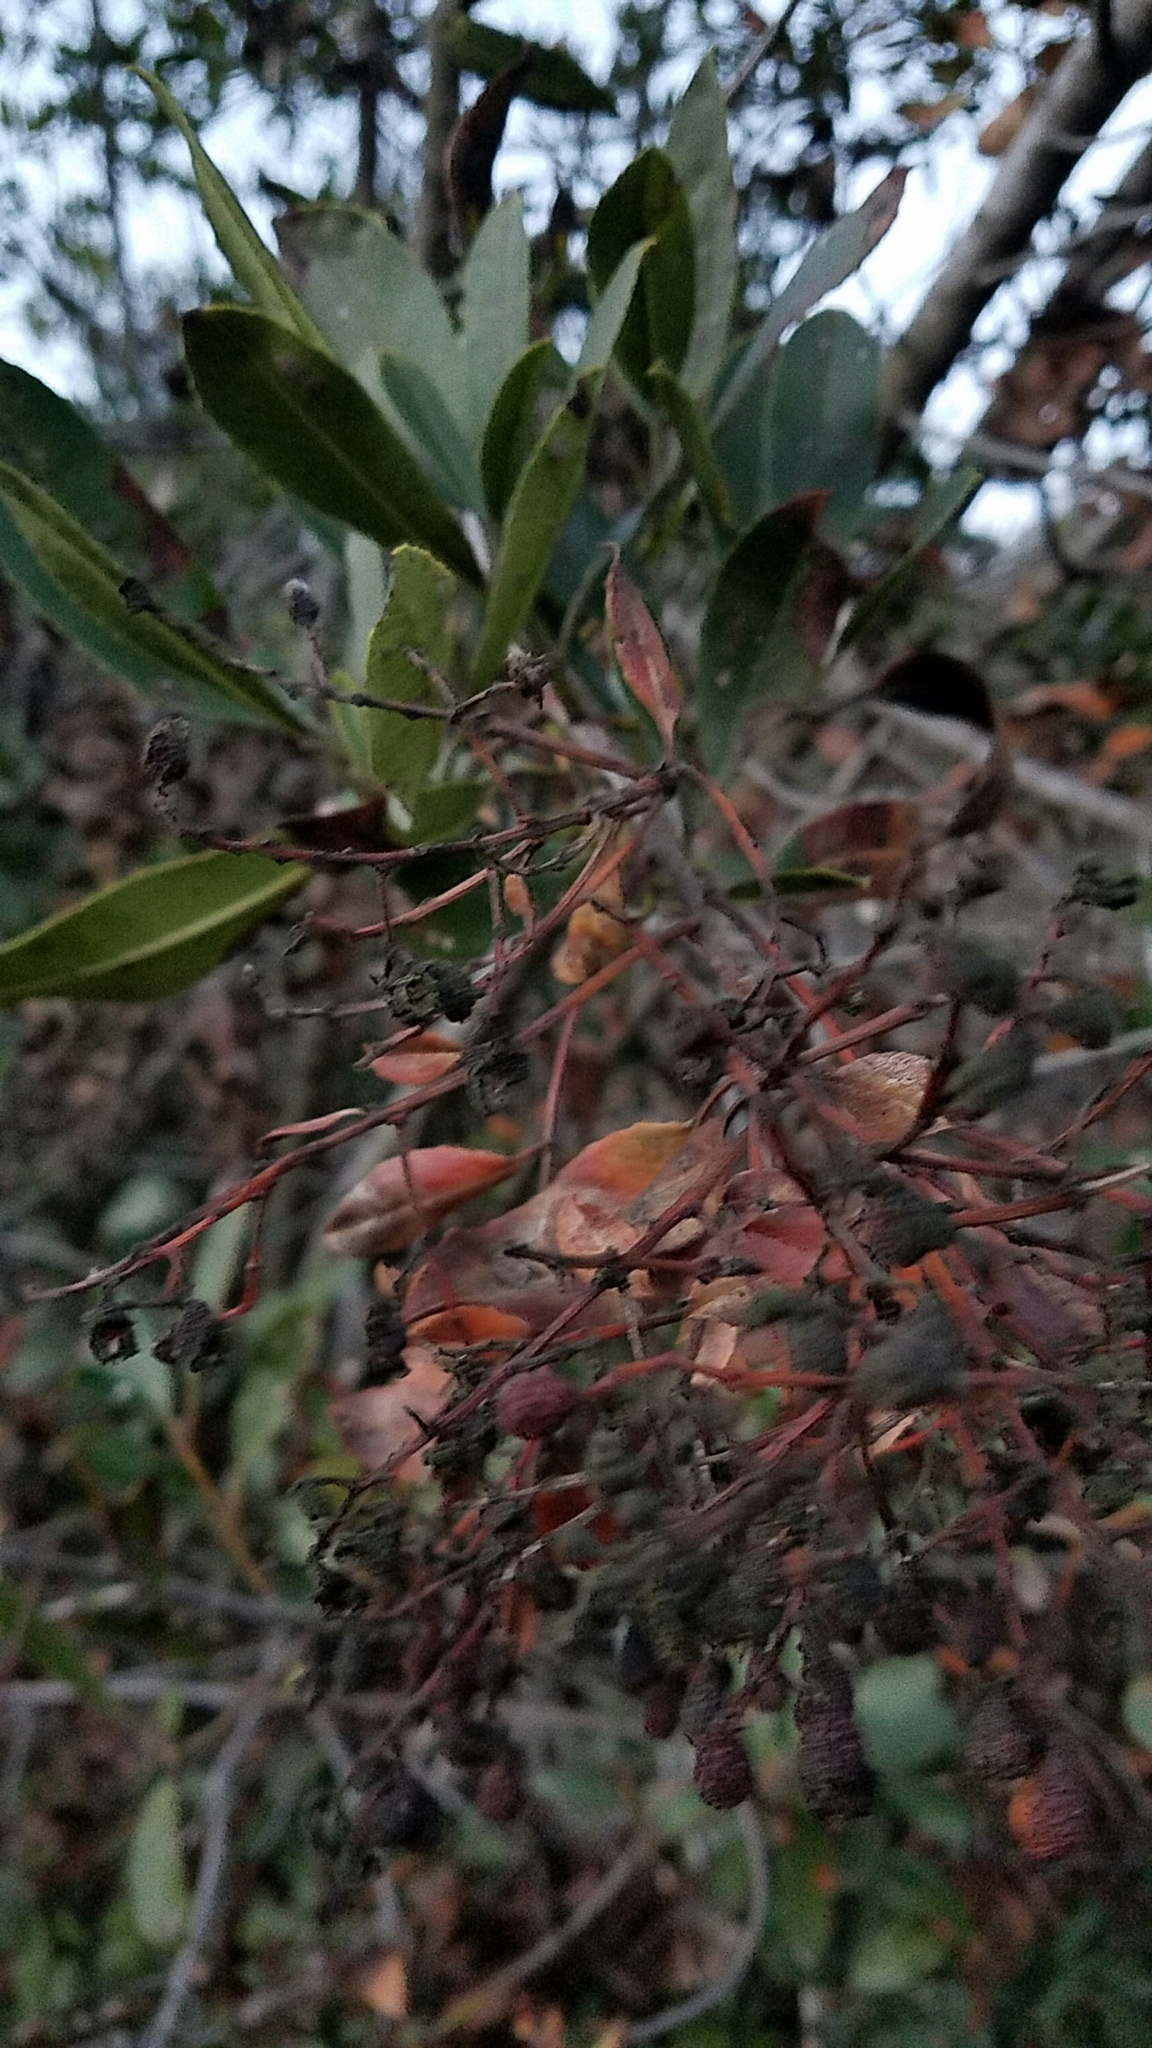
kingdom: Plantae
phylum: Tracheophyta
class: Magnoliopsida
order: Rosales
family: Rosaceae
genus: Heteromeles
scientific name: Heteromeles arbutifolia
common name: California-holly
